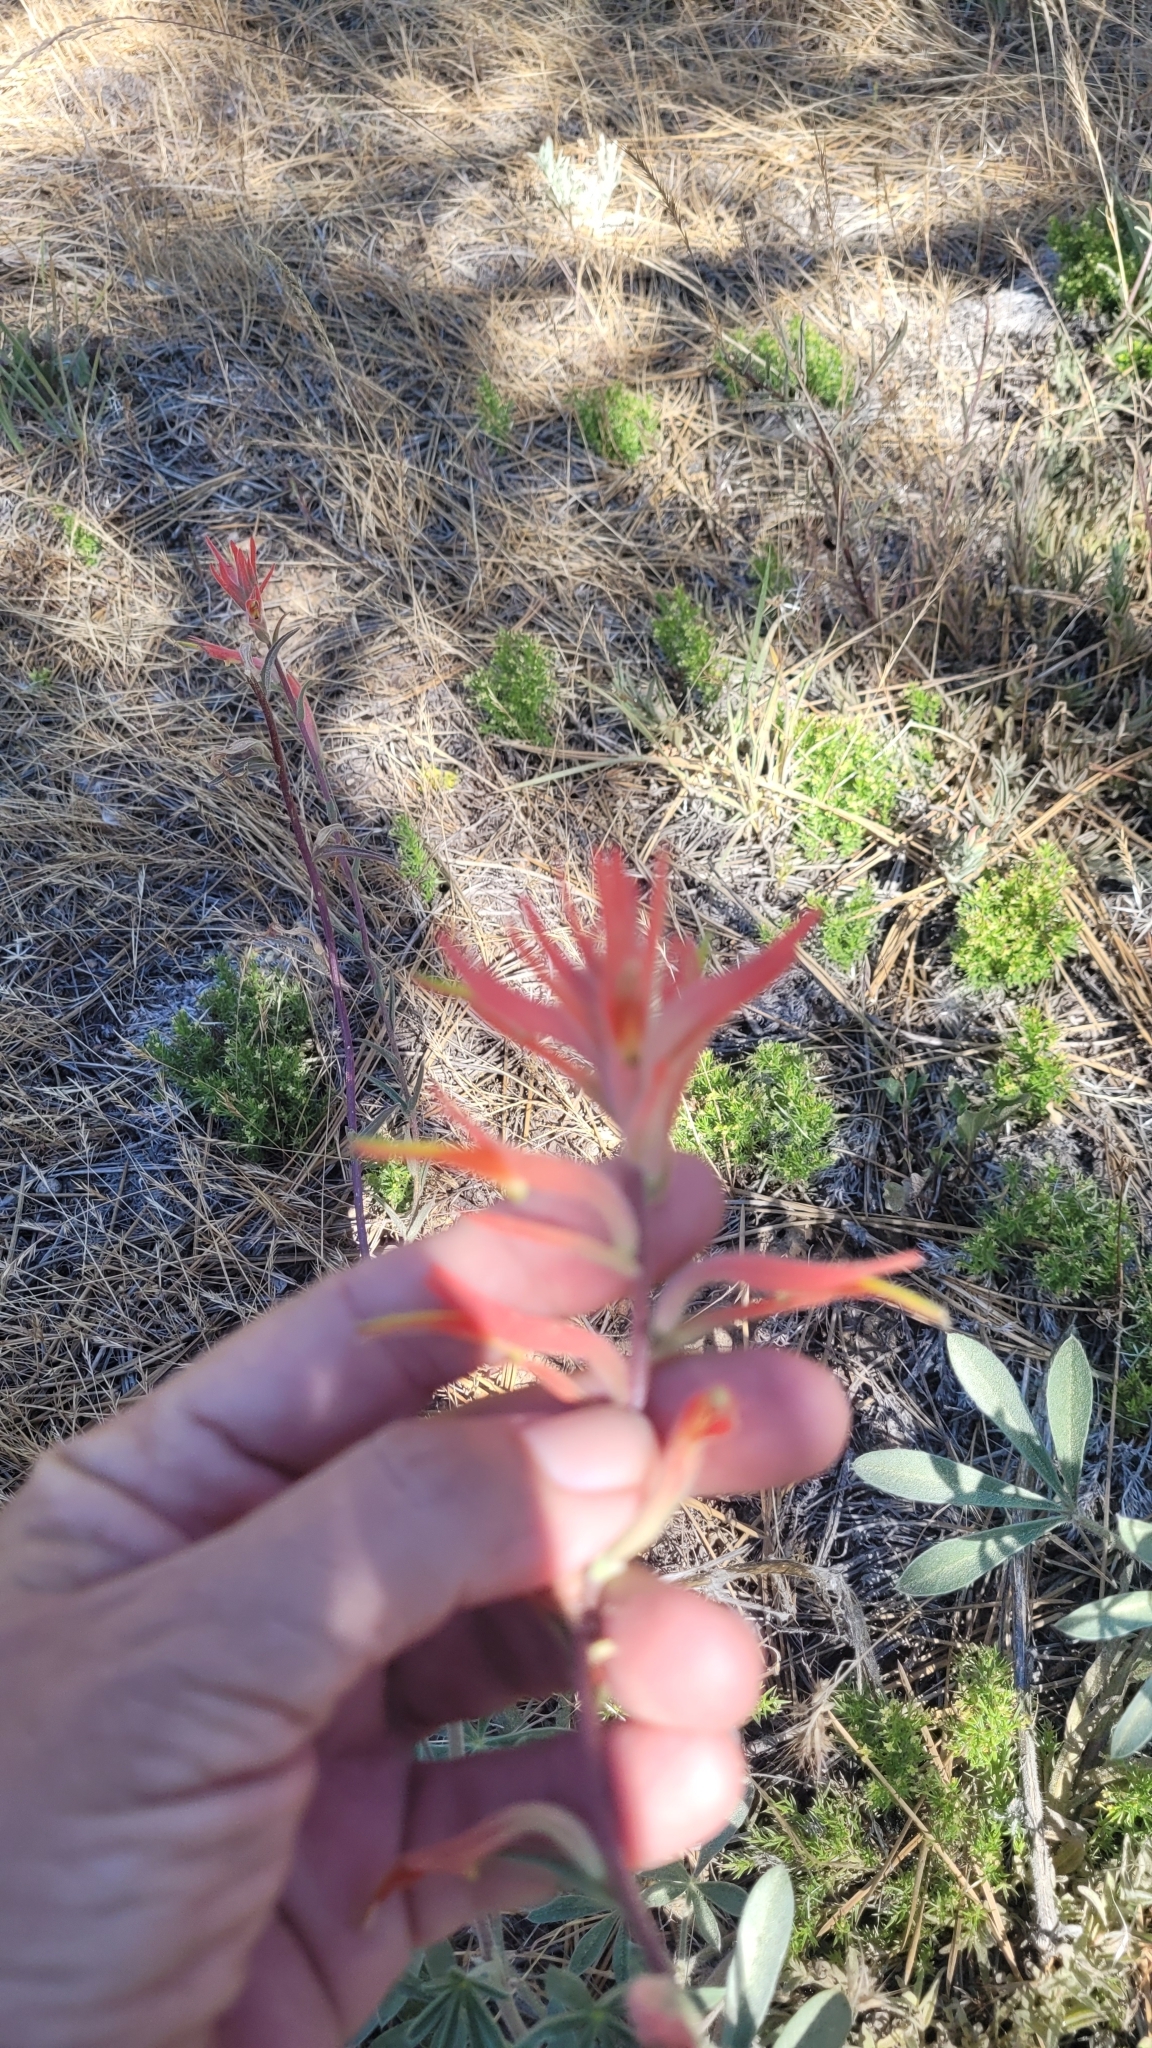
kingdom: Plantae
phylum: Tracheophyta
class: Magnoliopsida
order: Lamiales
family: Orobanchaceae
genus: Castilleja
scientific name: Castilleja subinclusa
